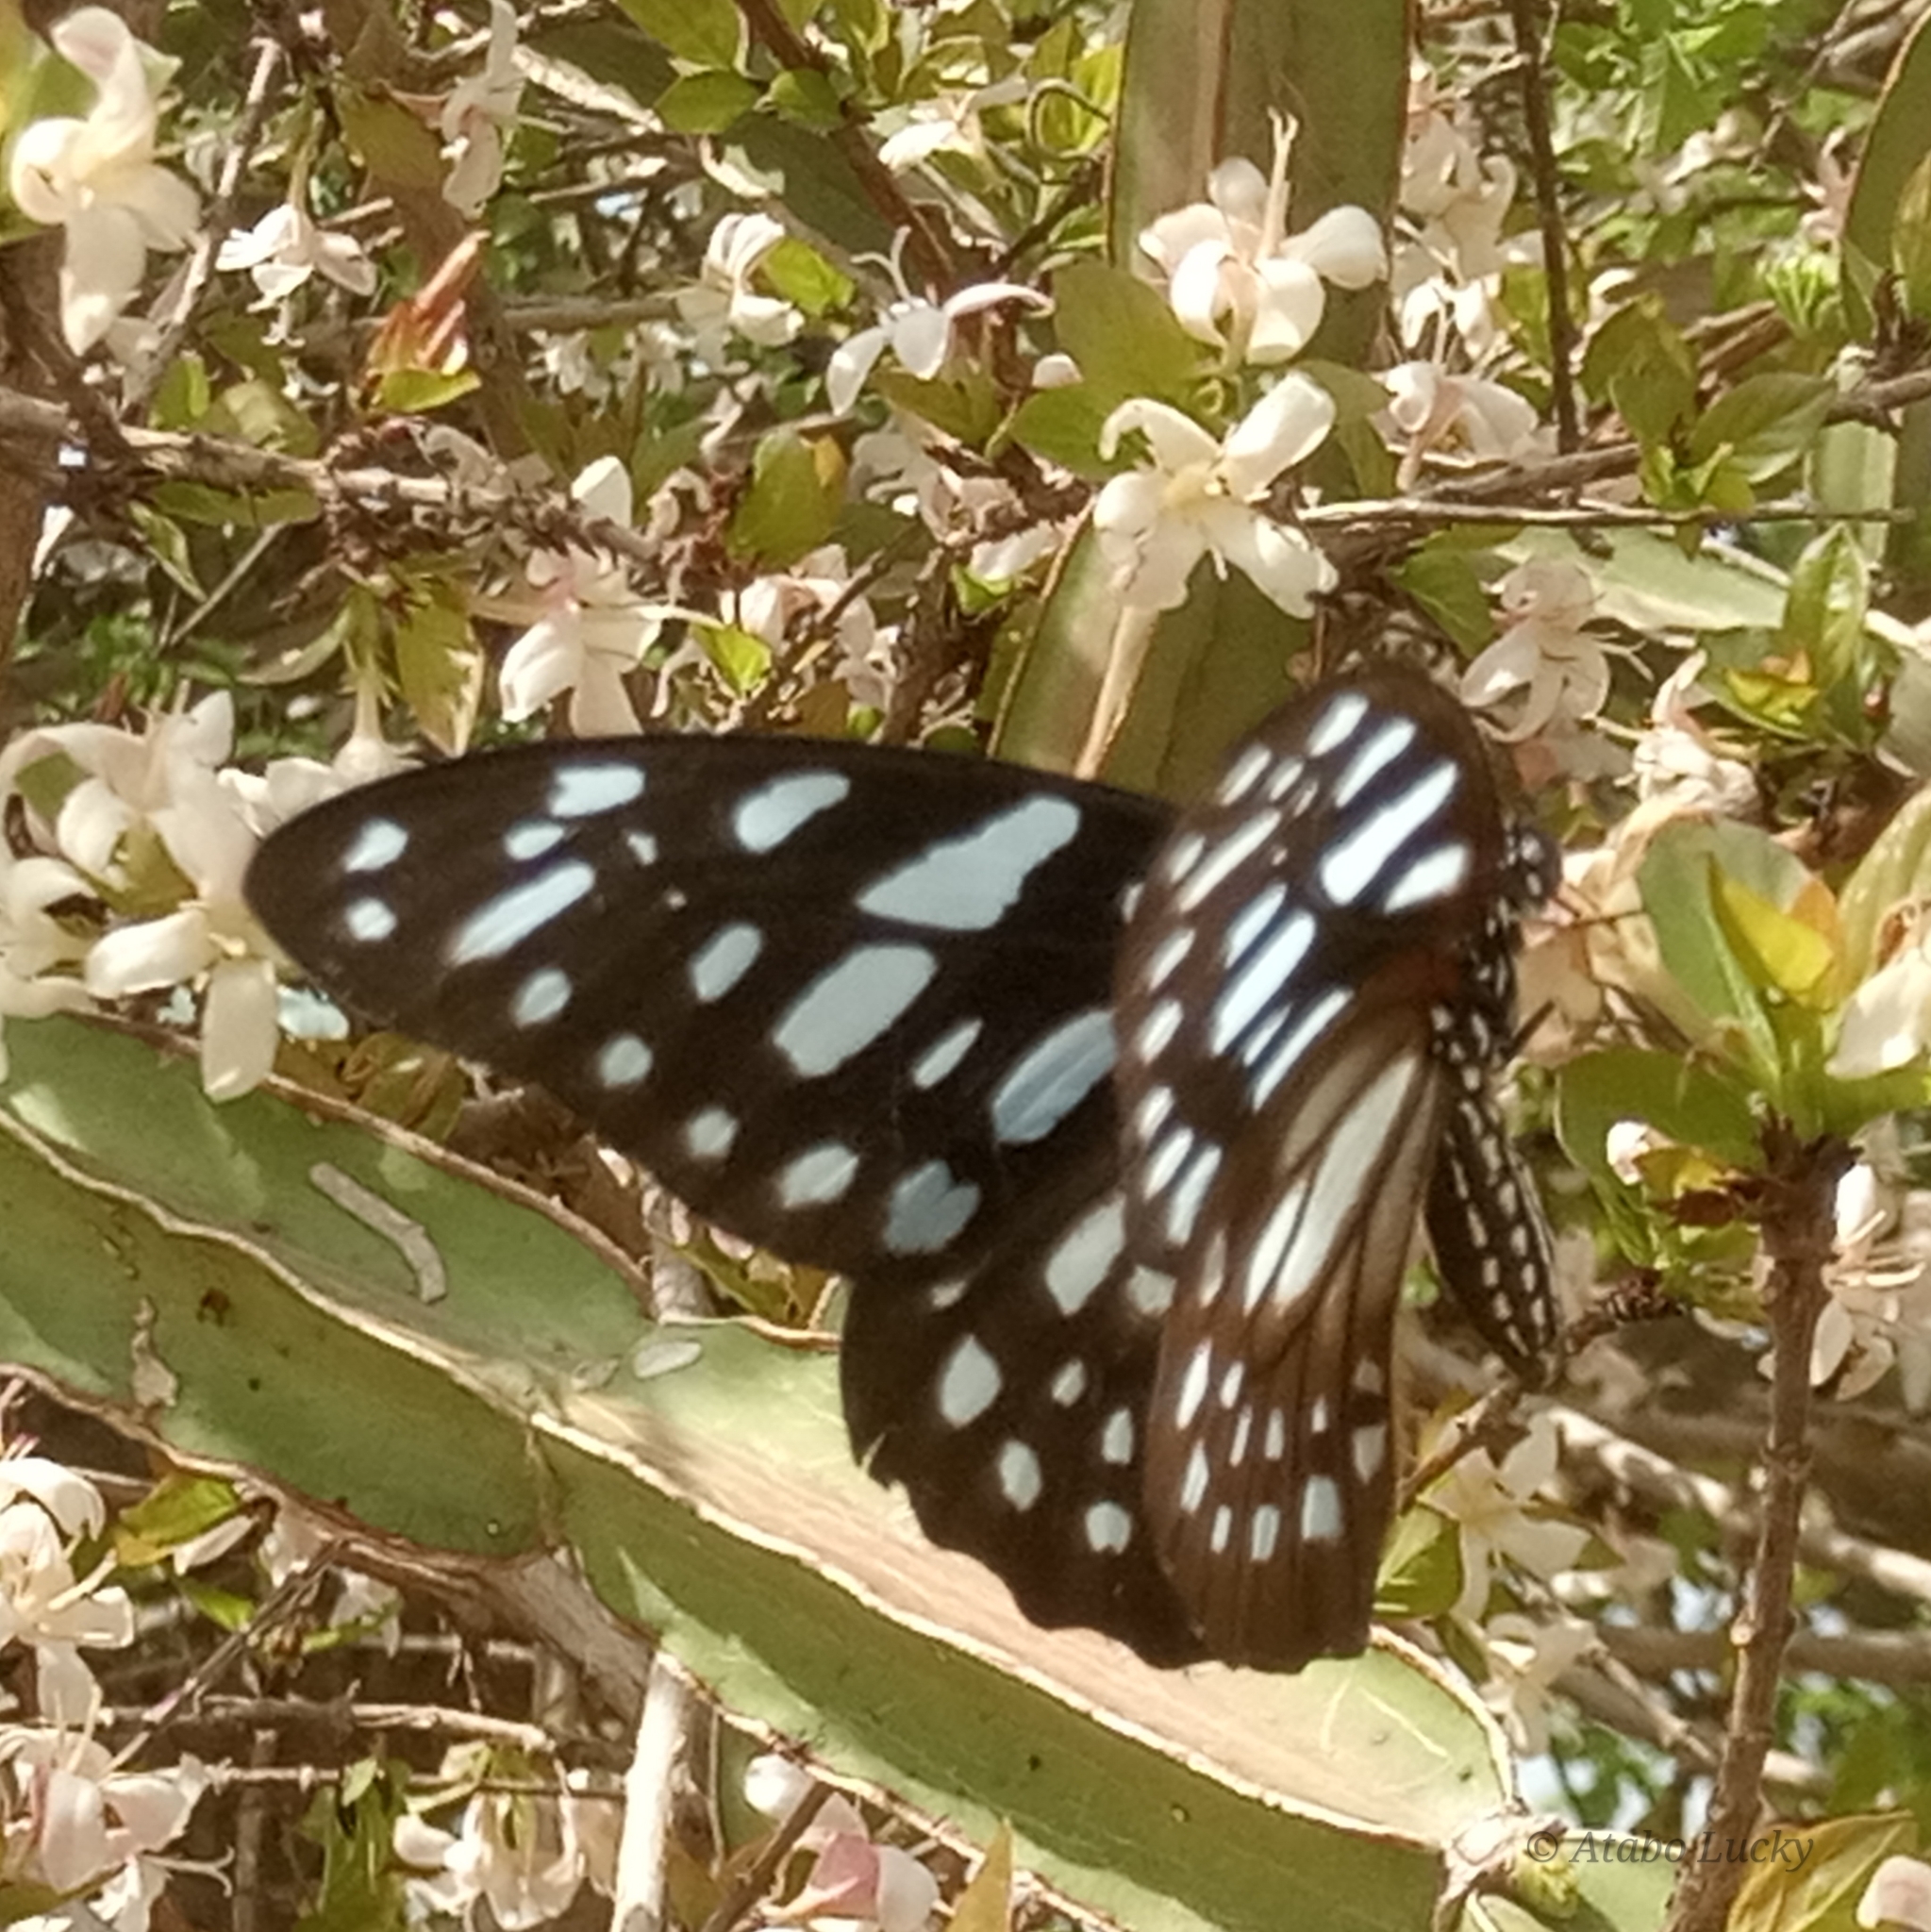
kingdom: Animalia
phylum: Arthropoda
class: Insecta
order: Lepidoptera
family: Papilionidae
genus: Graphium
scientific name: Graphium leonidas
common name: Common graphium
